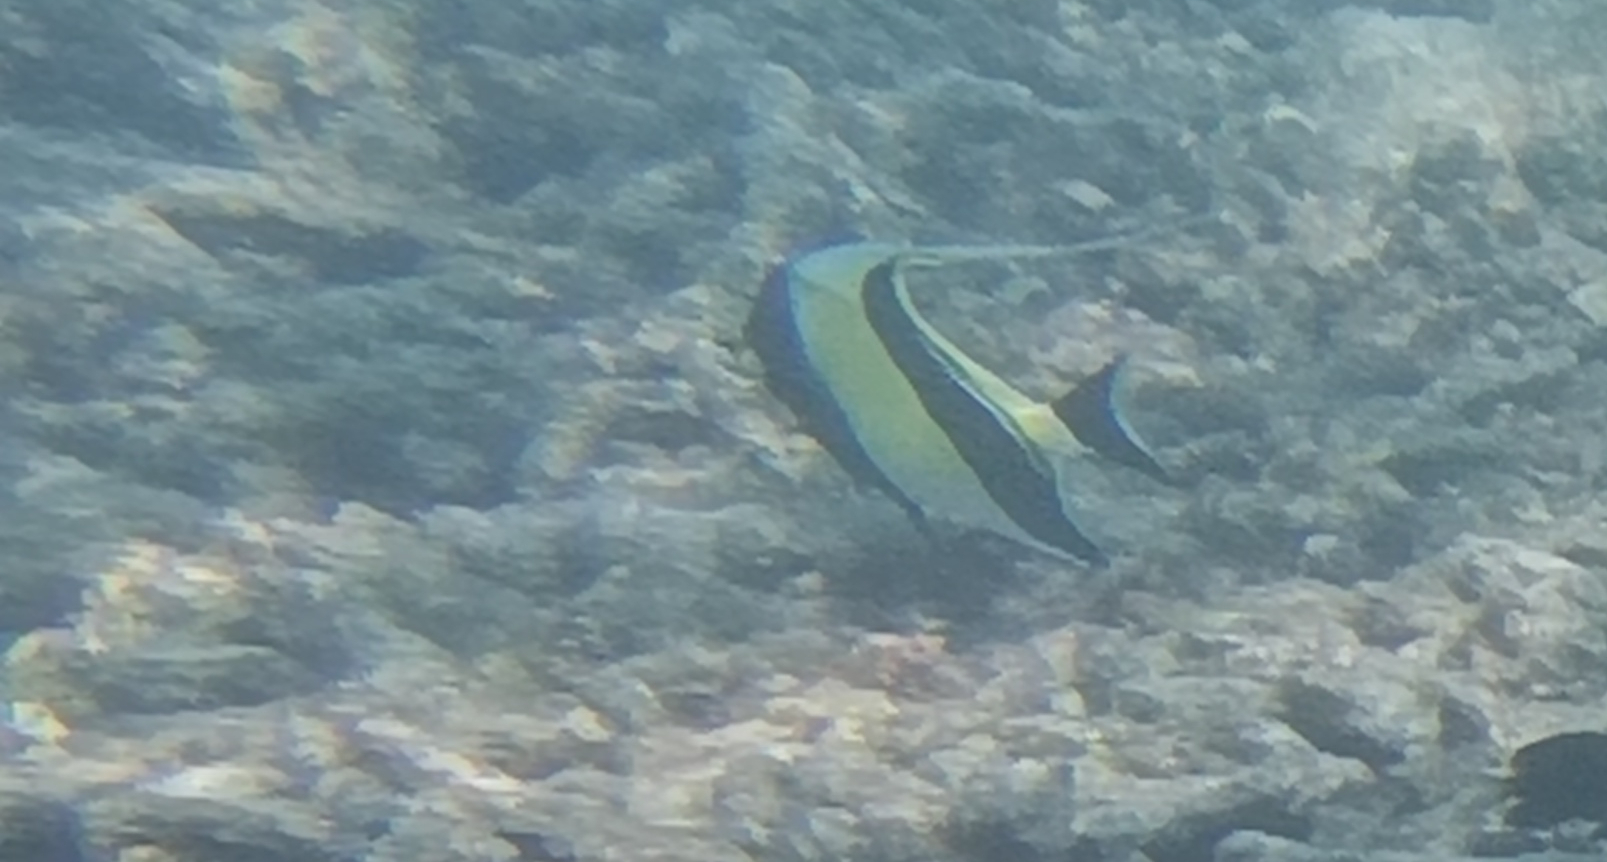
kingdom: Animalia
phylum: Chordata
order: Perciformes
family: Zanclidae
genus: Zanclus
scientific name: Zanclus cornutus
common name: Moorish idol
